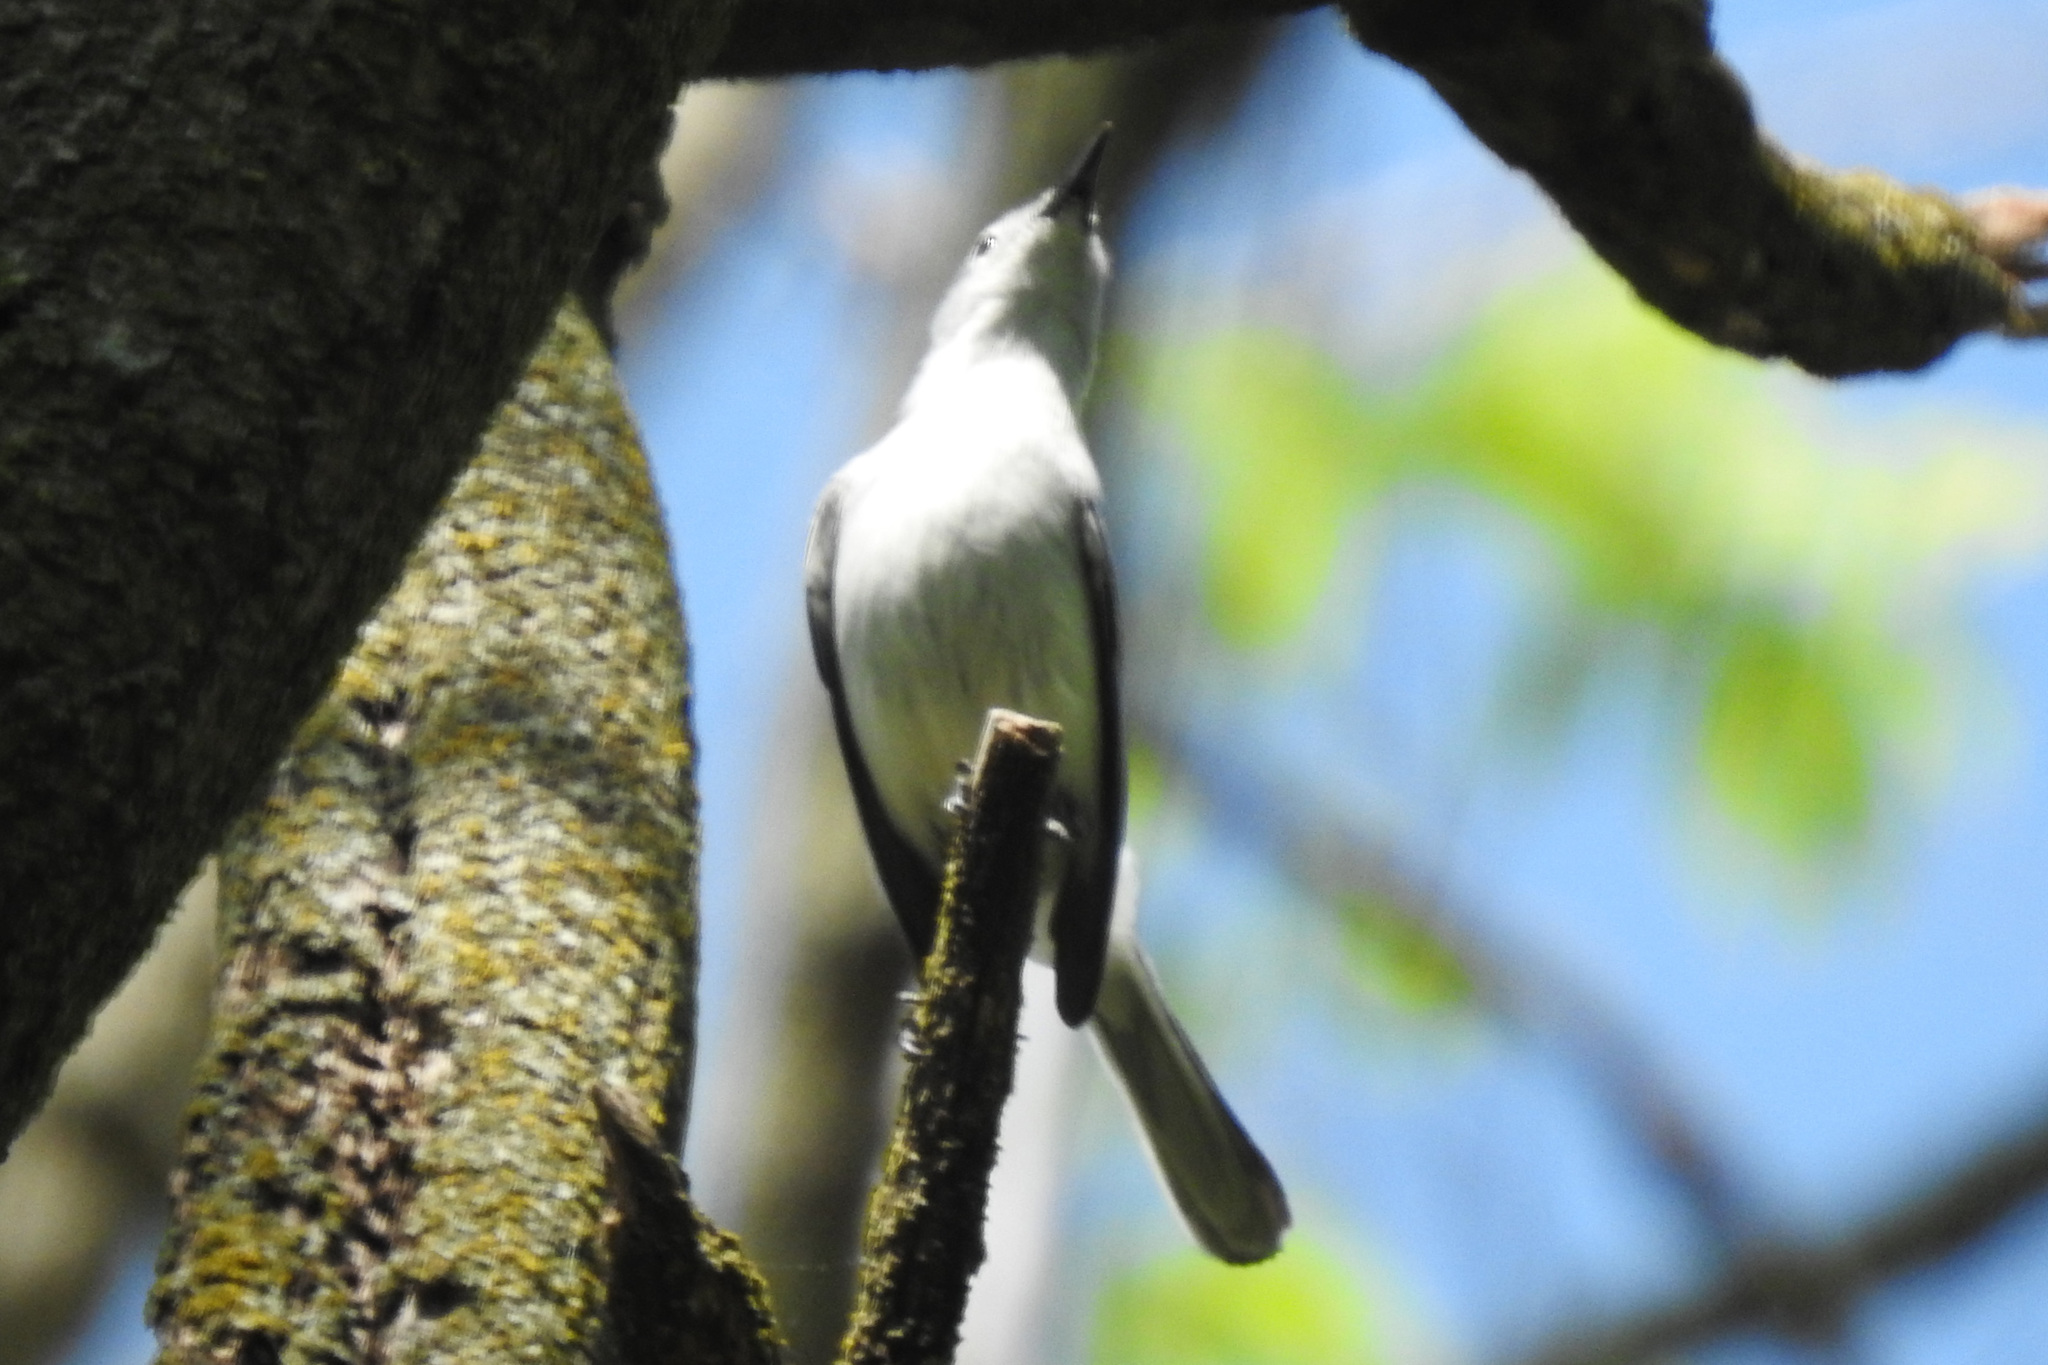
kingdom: Animalia
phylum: Chordata
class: Aves
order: Passeriformes
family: Polioptilidae
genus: Polioptila
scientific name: Polioptila caerulea
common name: Blue-gray gnatcatcher
